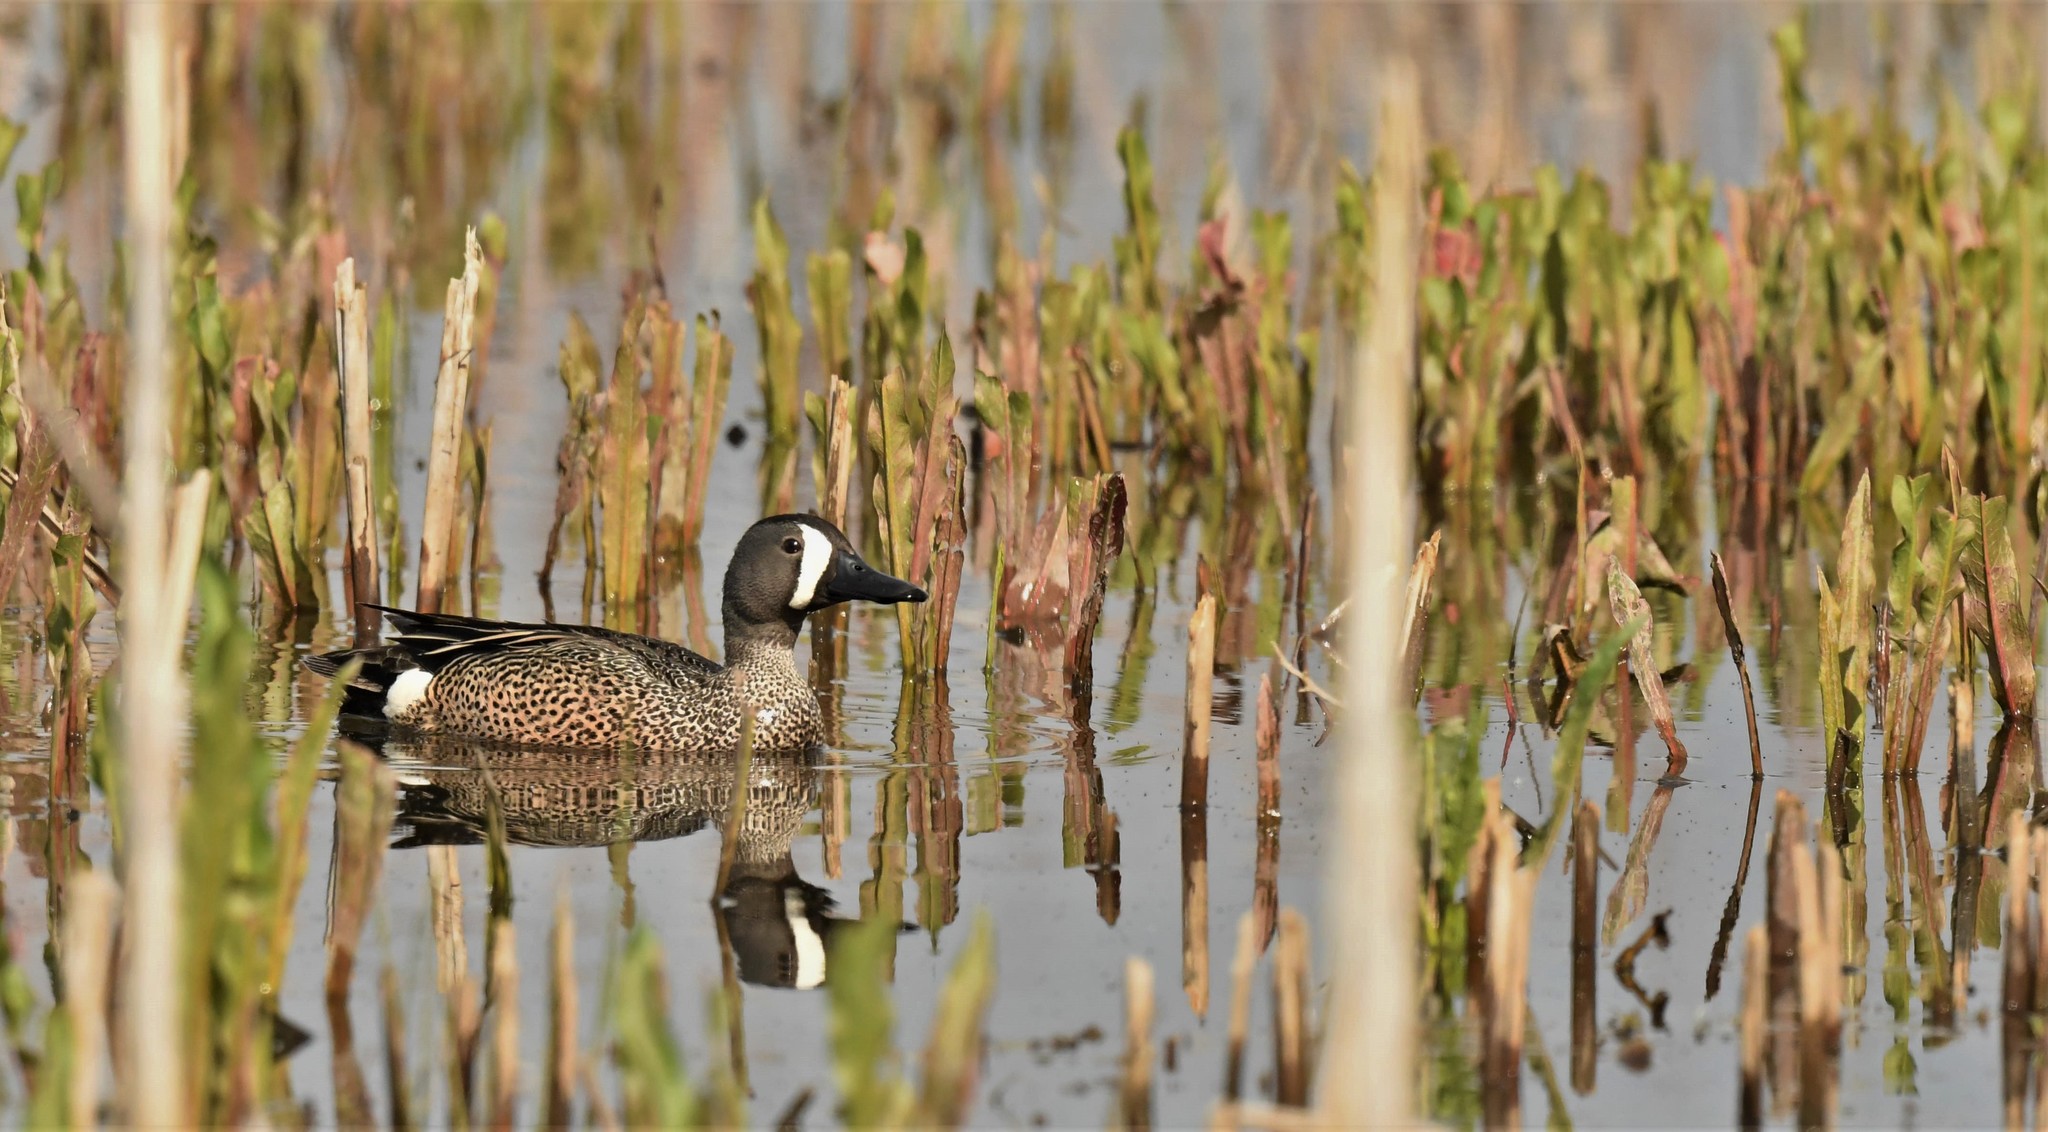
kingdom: Animalia
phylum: Chordata
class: Aves
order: Anseriformes
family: Anatidae
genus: Spatula
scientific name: Spatula discors
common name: Blue-winged teal
